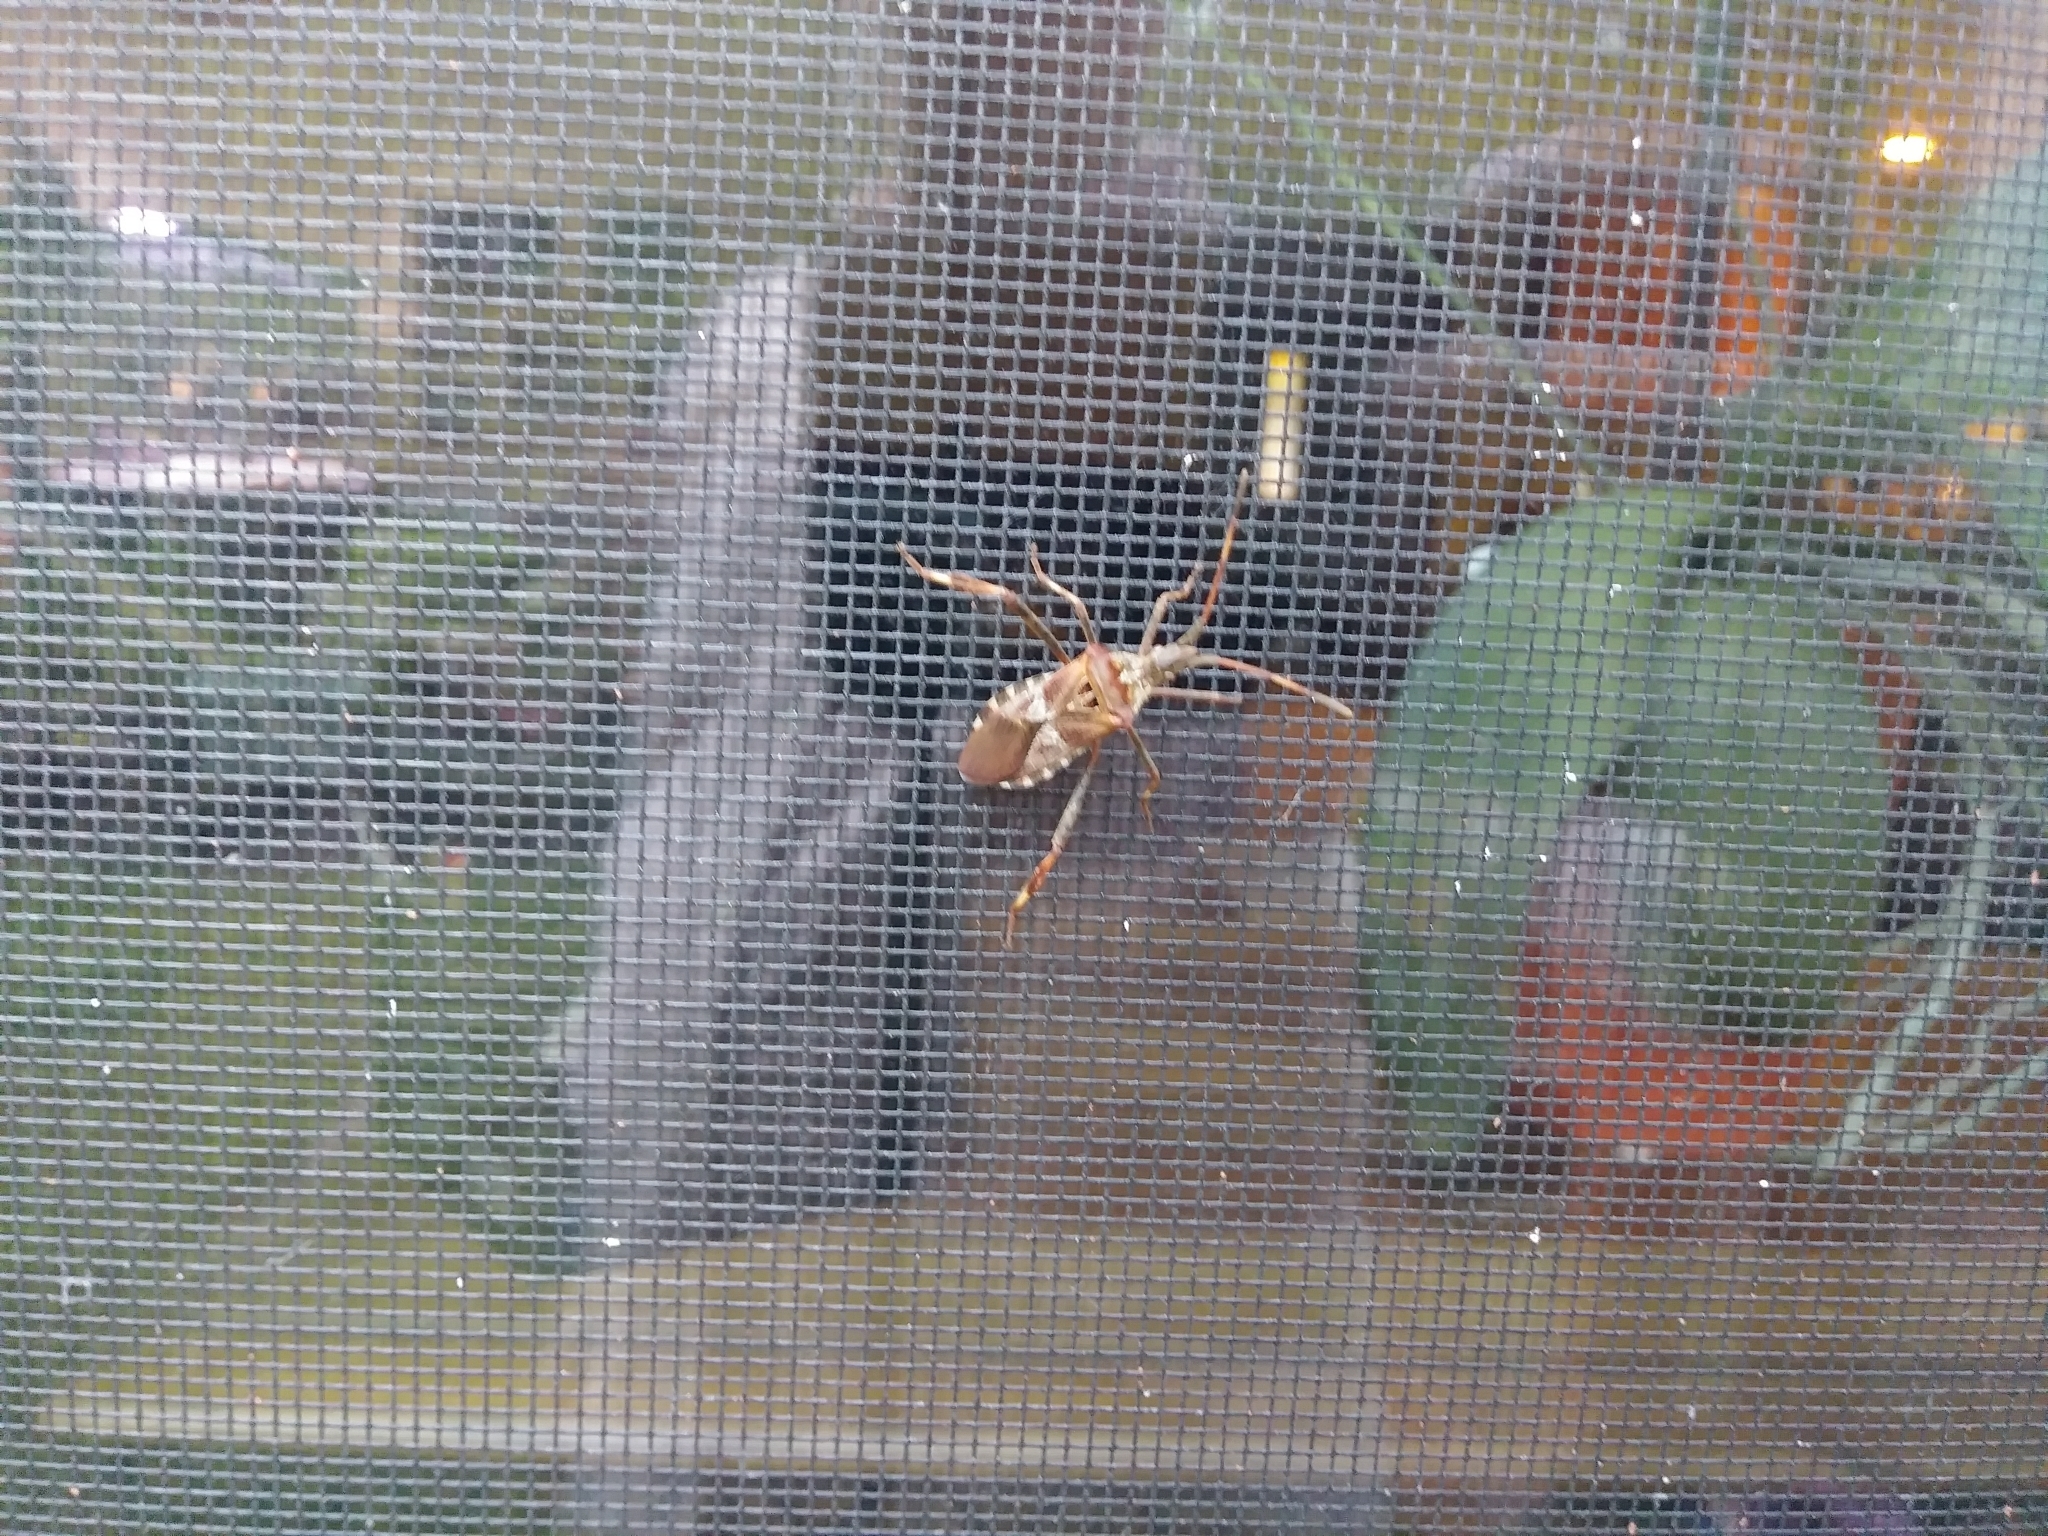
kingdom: Animalia
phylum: Arthropoda
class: Insecta
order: Hemiptera
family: Coreidae
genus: Leptoglossus
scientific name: Leptoglossus occidentalis
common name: Western conifer-seed bug
